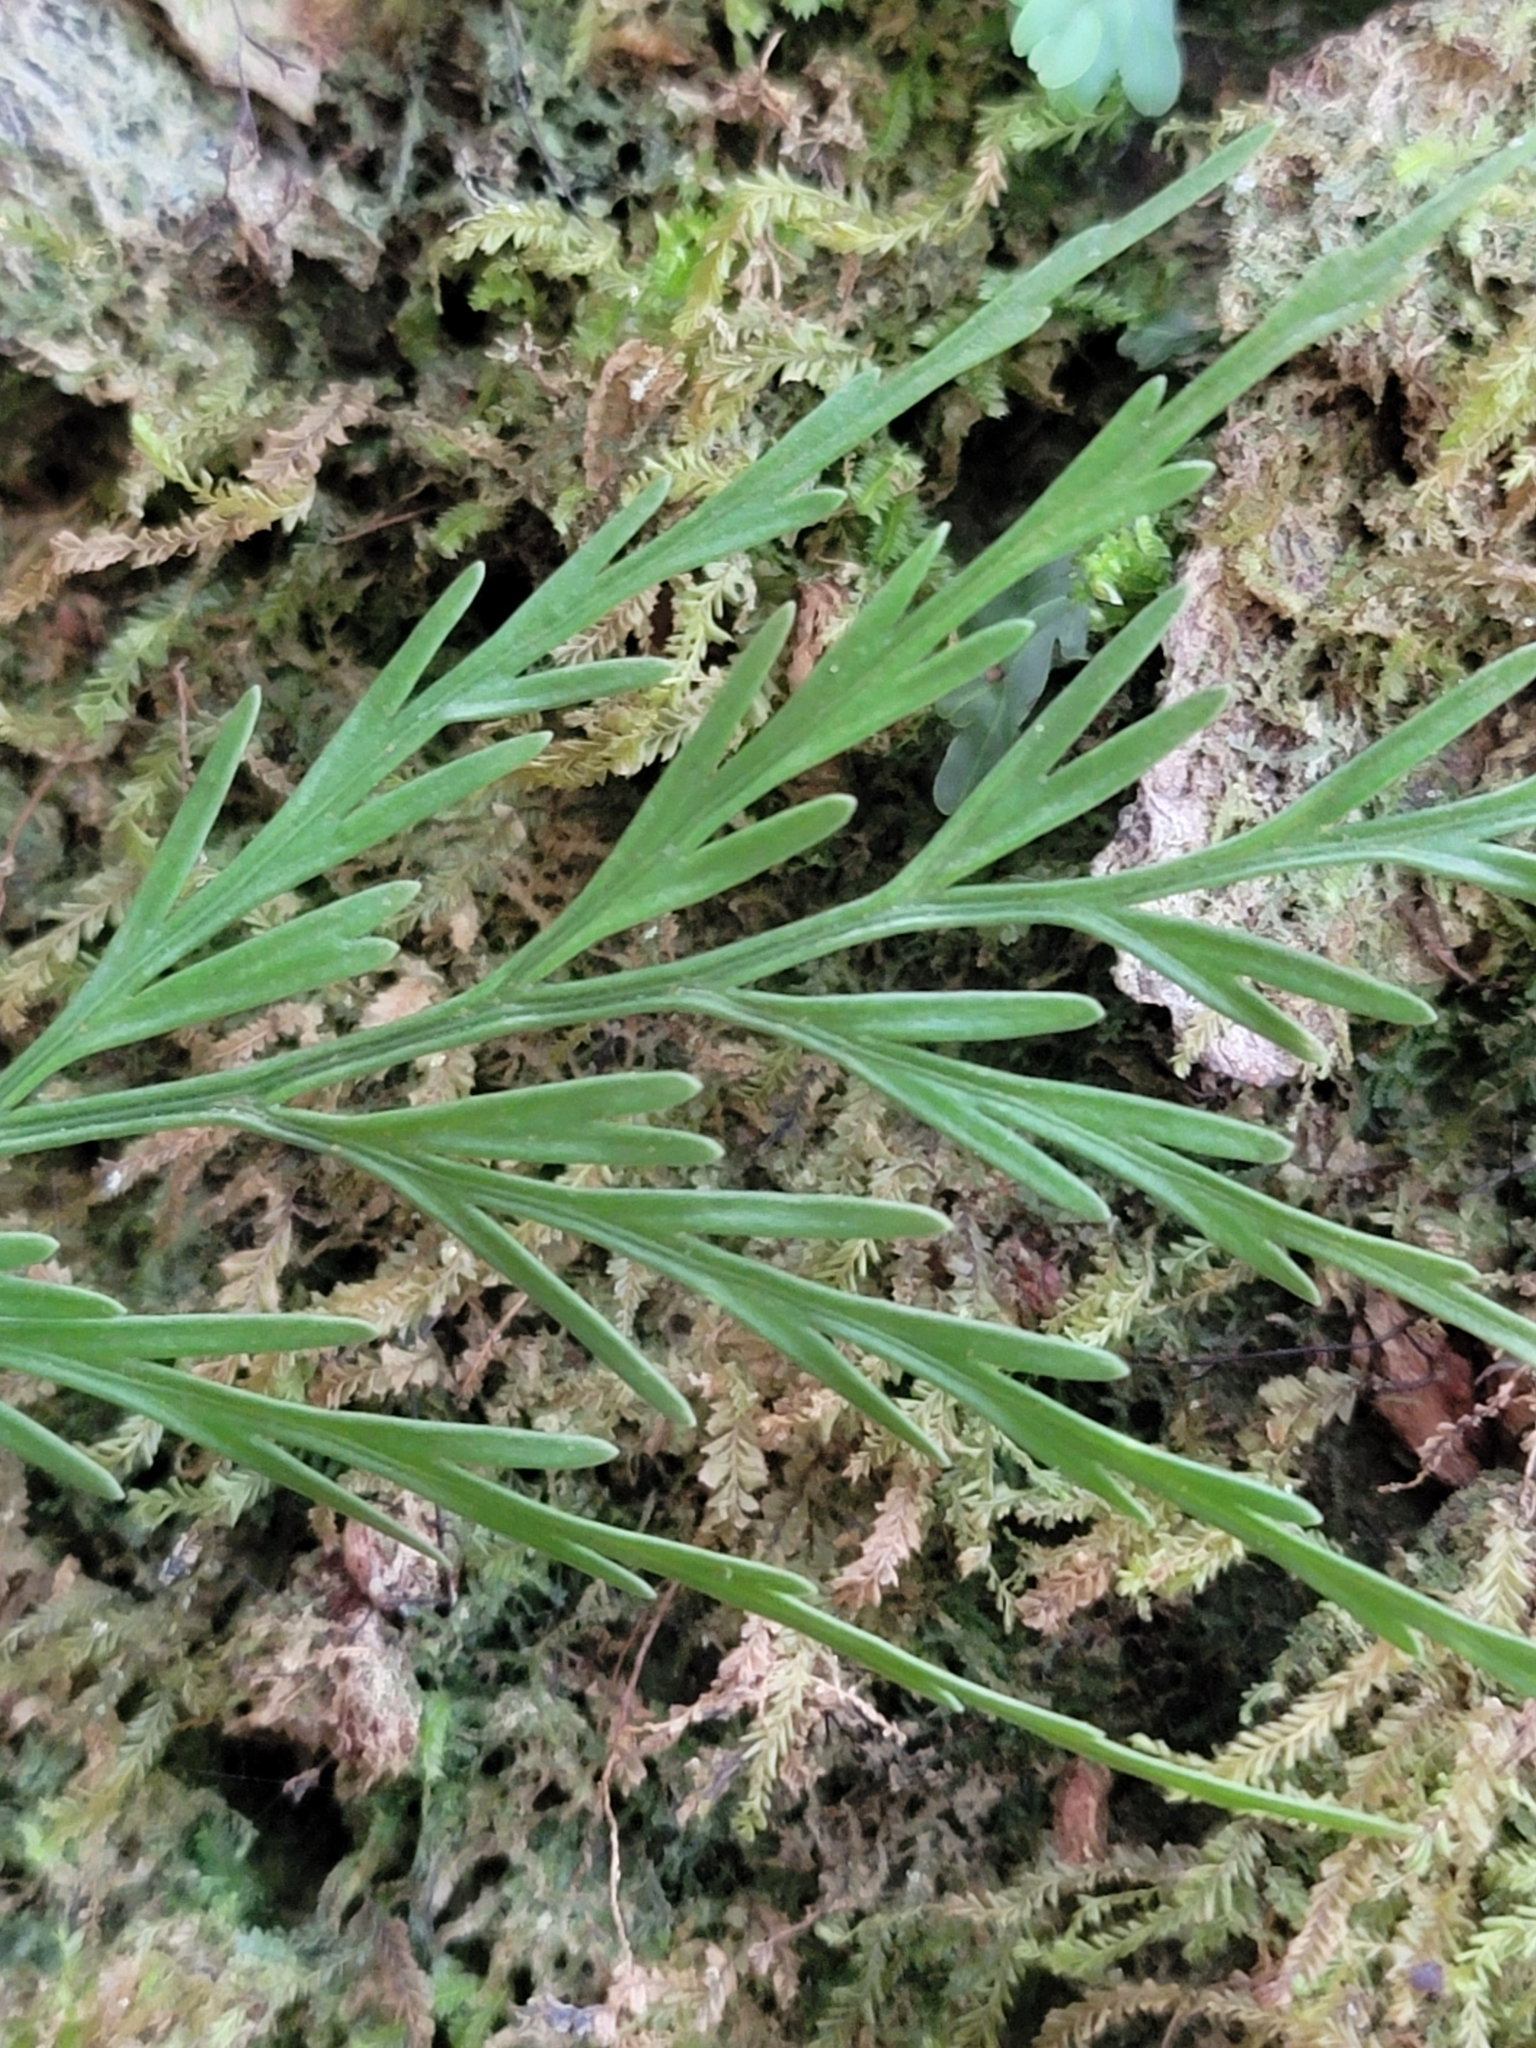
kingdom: Plantae
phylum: Tracheophyta
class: Polypodiopsida
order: Polypodiales
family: Aspleniaceae
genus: Asplenium
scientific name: Asplenium flaccidum
